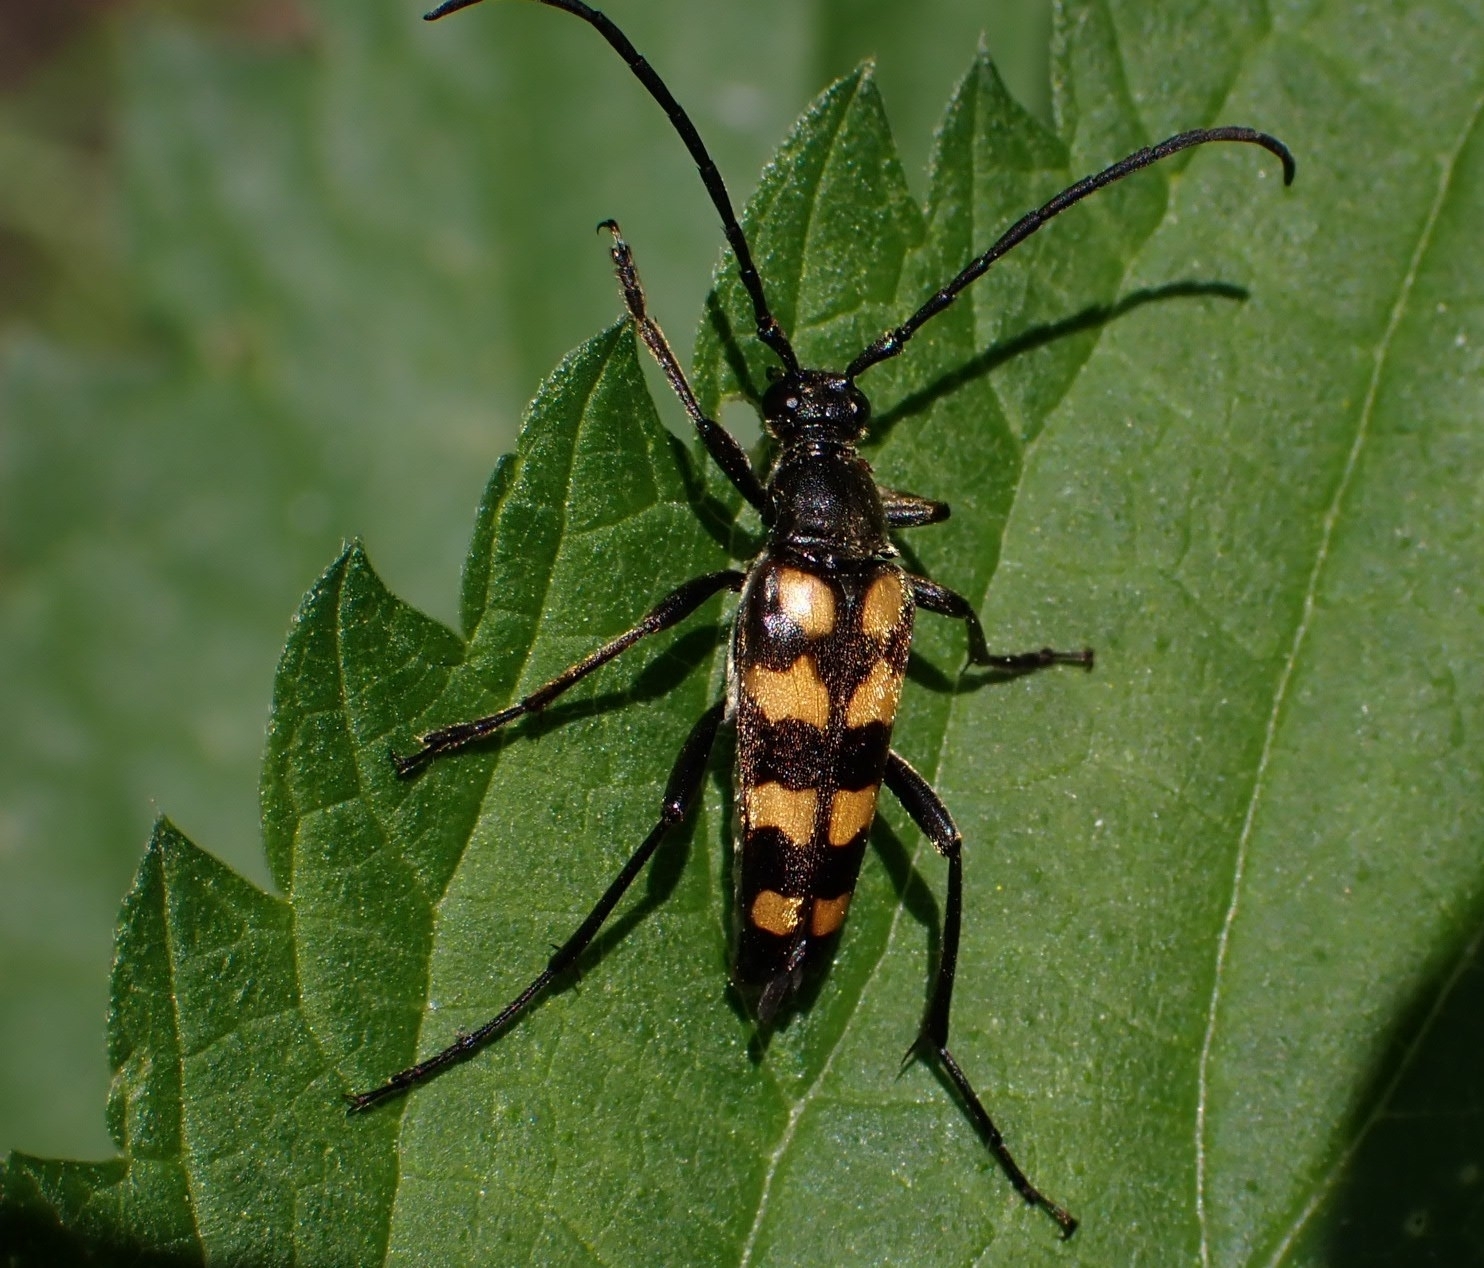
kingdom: Animalia
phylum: Arthropoda
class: Insecta
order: Coleoptera
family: Cerambycidae
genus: Leptura
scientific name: Leptura quadrifasciata
